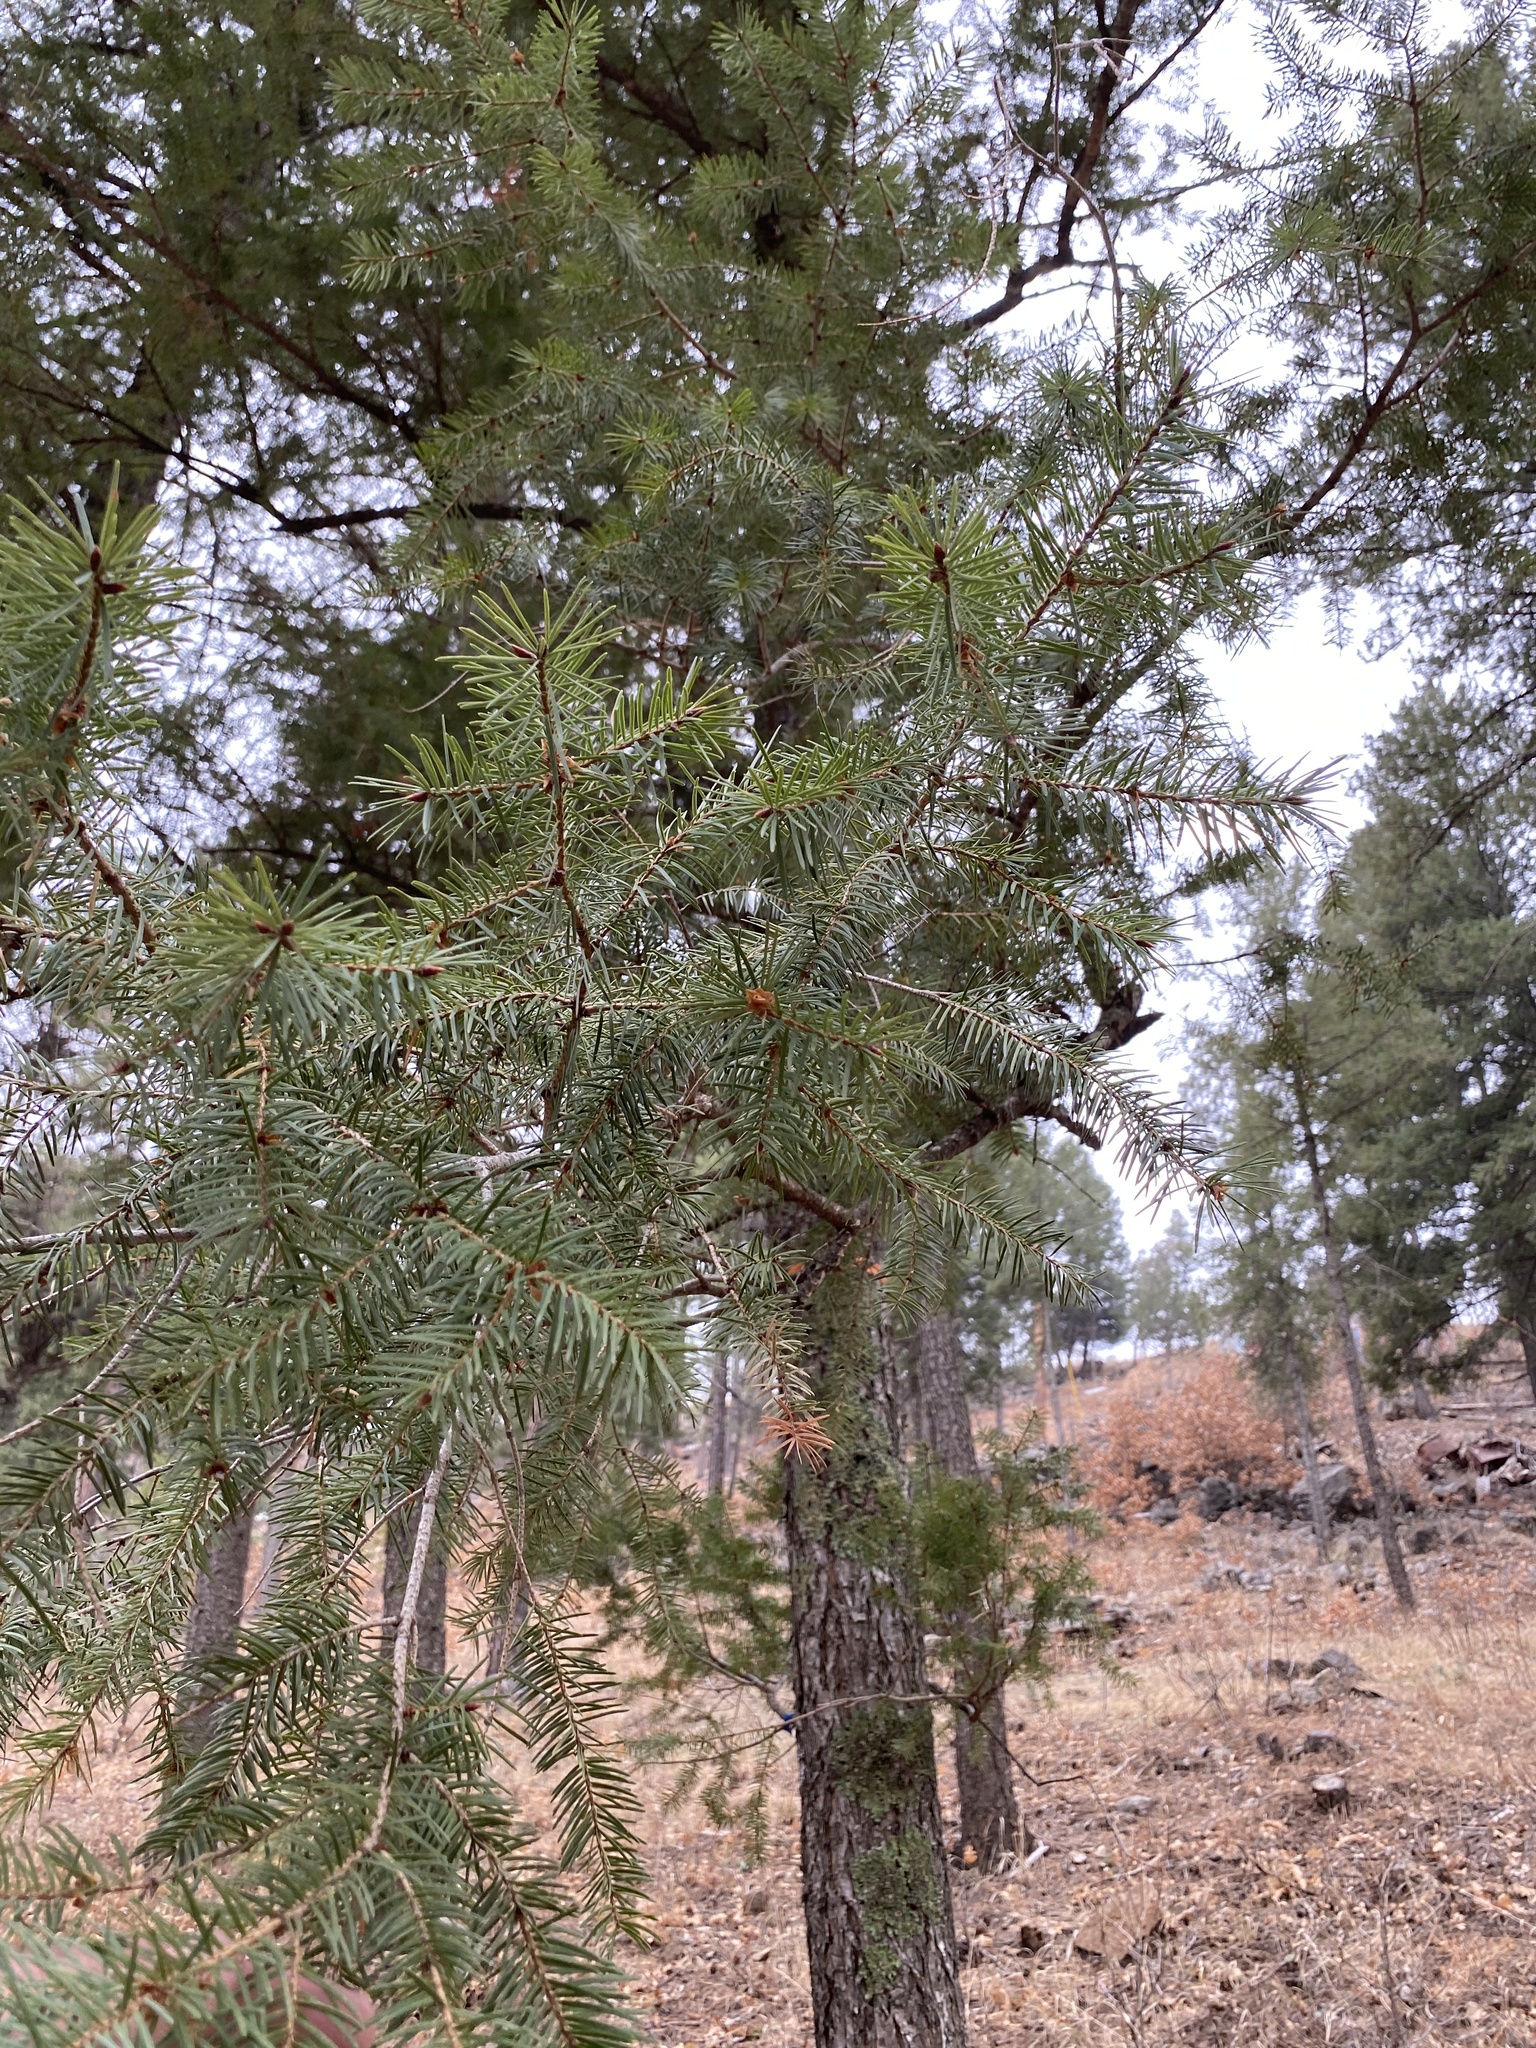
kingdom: Plantae
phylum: Tracheophyta
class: Pinopsida
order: Pinales
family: Pinaceae
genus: Pseudotsuga
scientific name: Pseudotsuga menziesii
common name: Douglas fir
